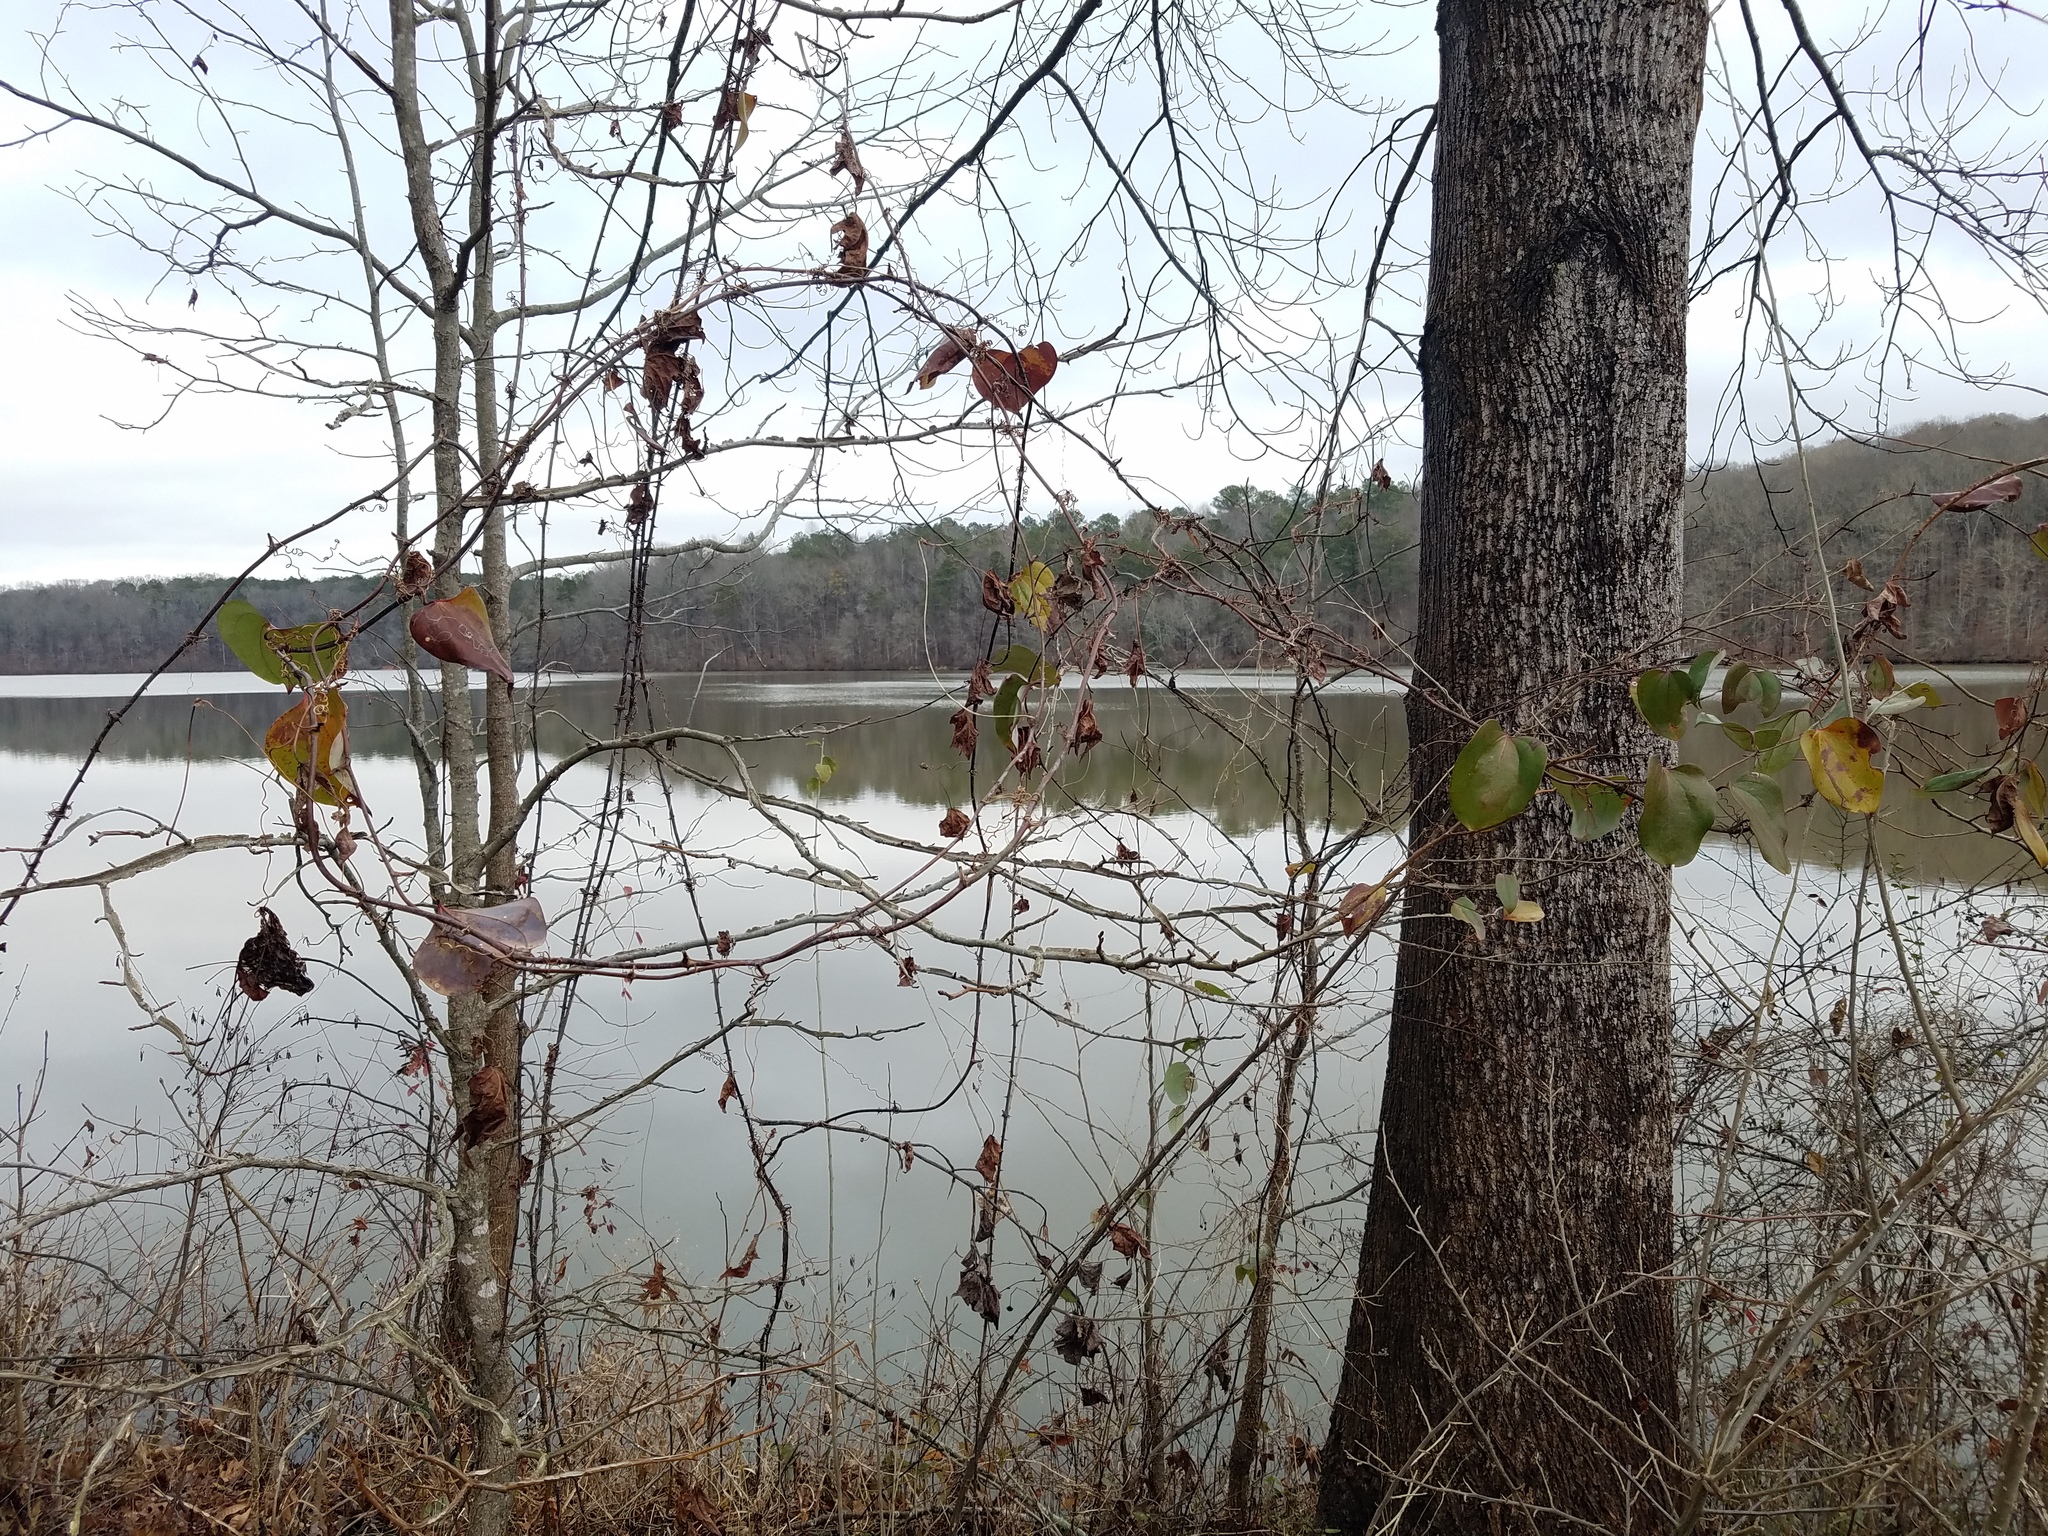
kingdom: Plantae
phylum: Tracheophyta
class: Liliopsida
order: Liliales
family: Smilacaceae
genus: Smilax
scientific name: Smilax glauca
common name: Cat greenbrier
